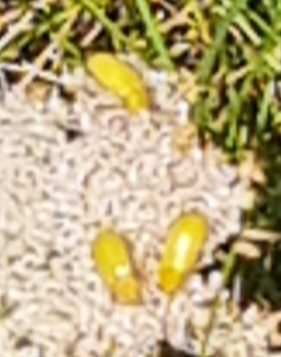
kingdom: Animalia
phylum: Arthropoda
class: Insecta
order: Coleoptera
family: Tenebrionidae
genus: Cteniopus
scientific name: Cteniopus sulphureus
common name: Sulphur beetle
